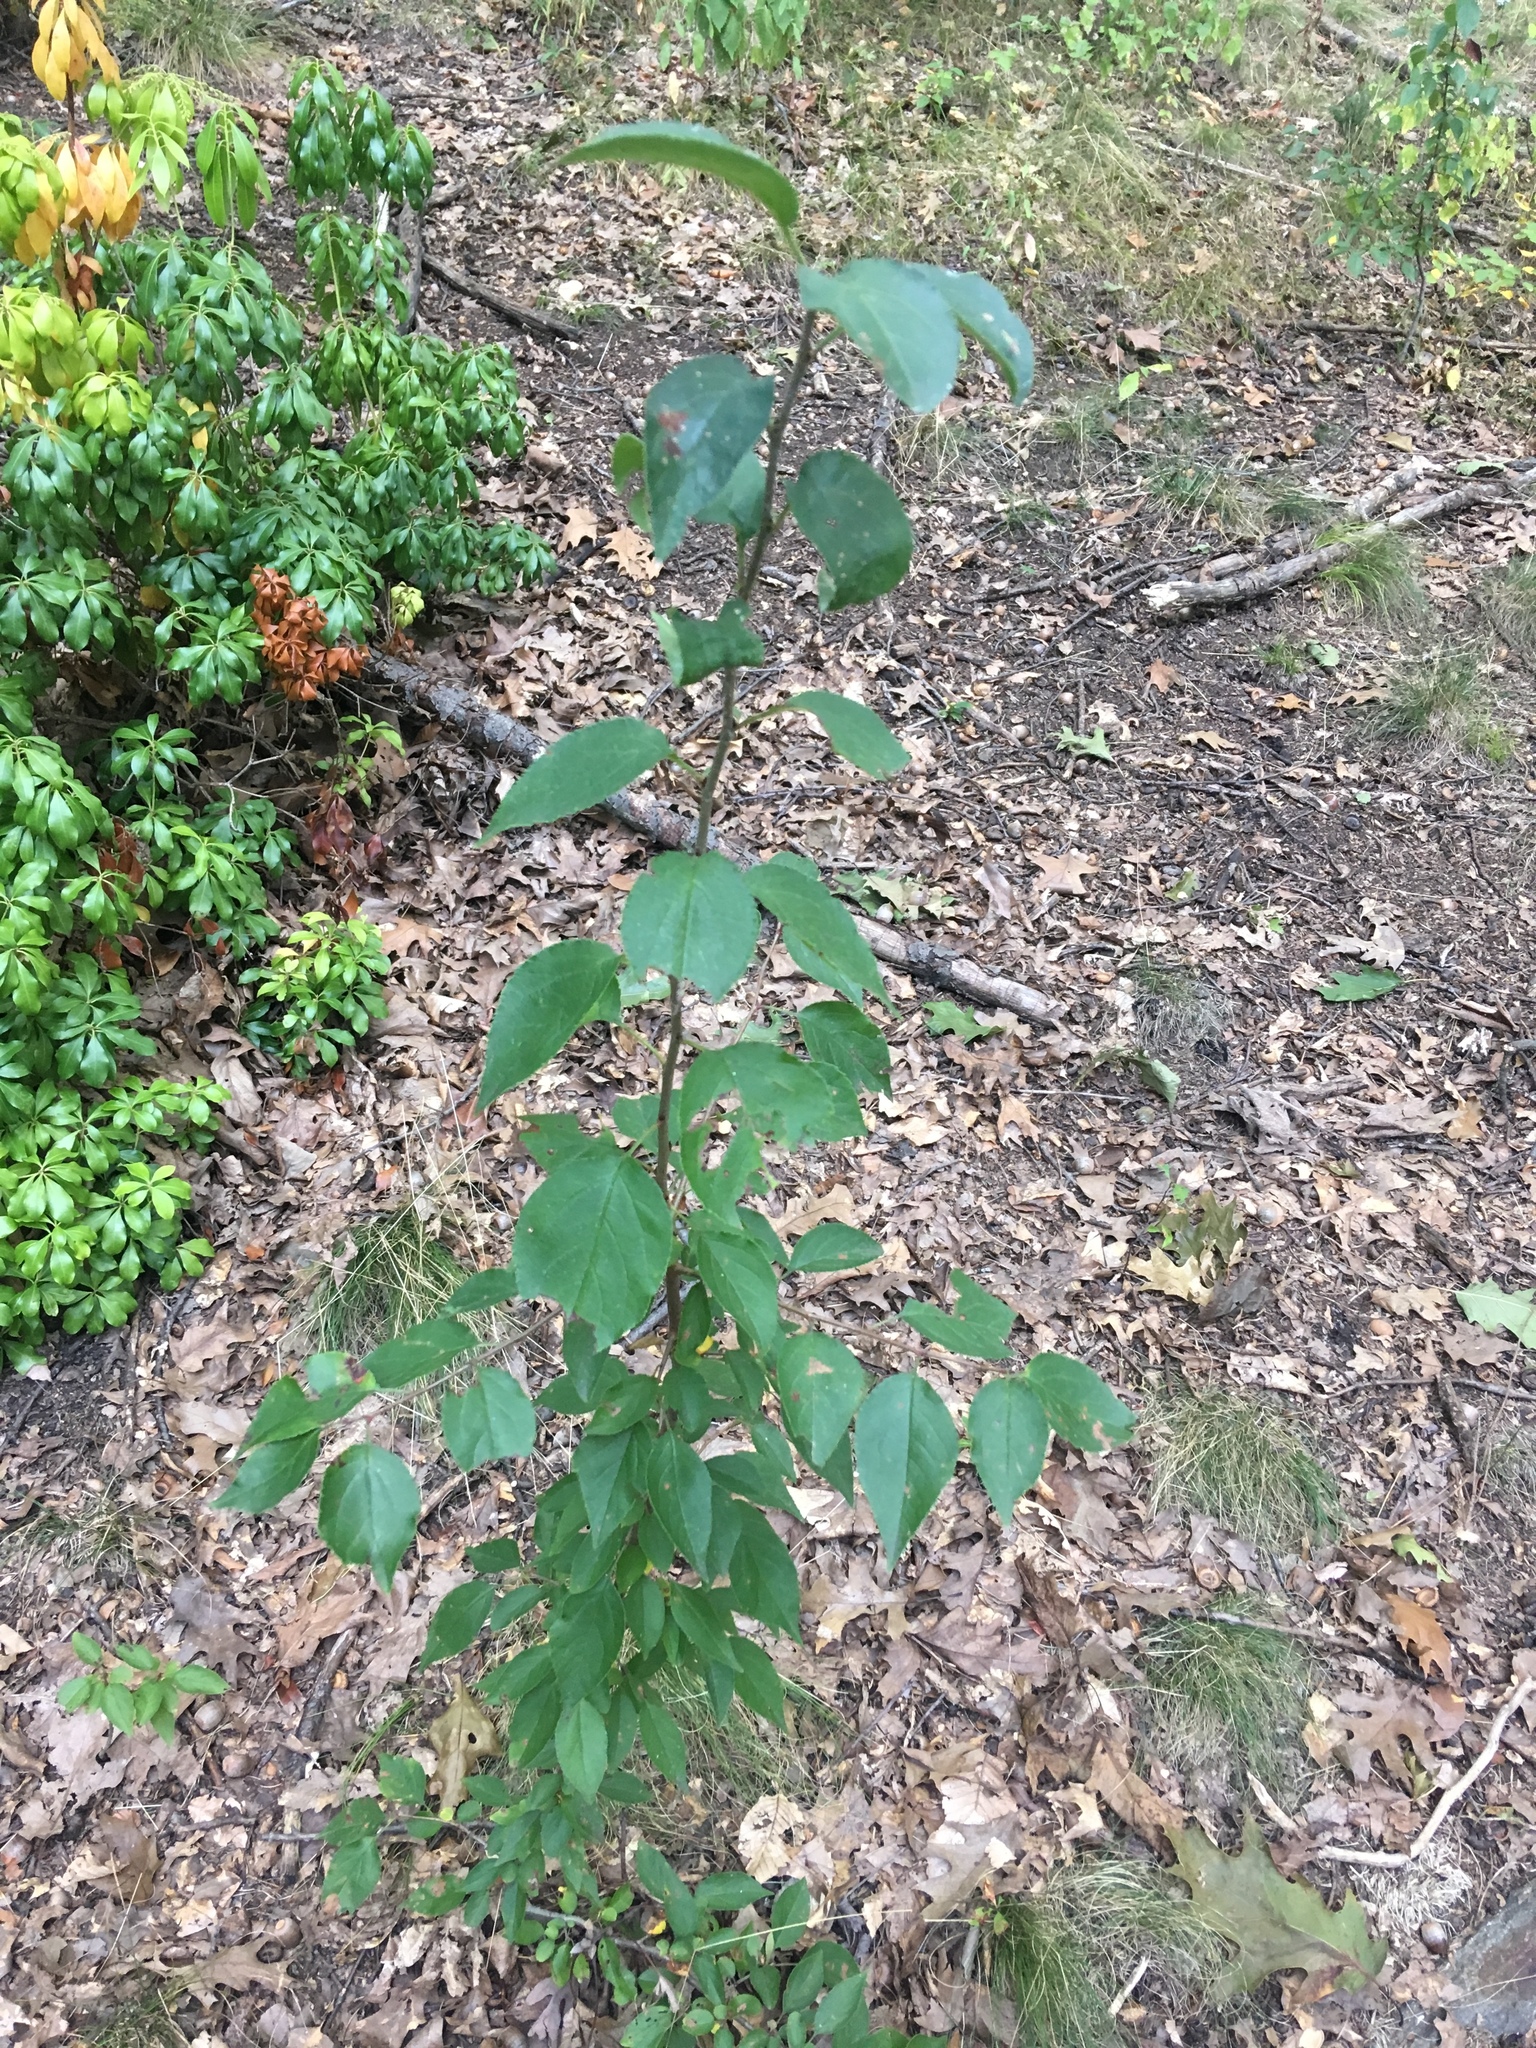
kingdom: Plantae
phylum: Tracheophyta
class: Magnoliopsida
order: Rosales
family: Rosaceae
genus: Malus
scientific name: Malus hupehensis
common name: Chinese crab apple
